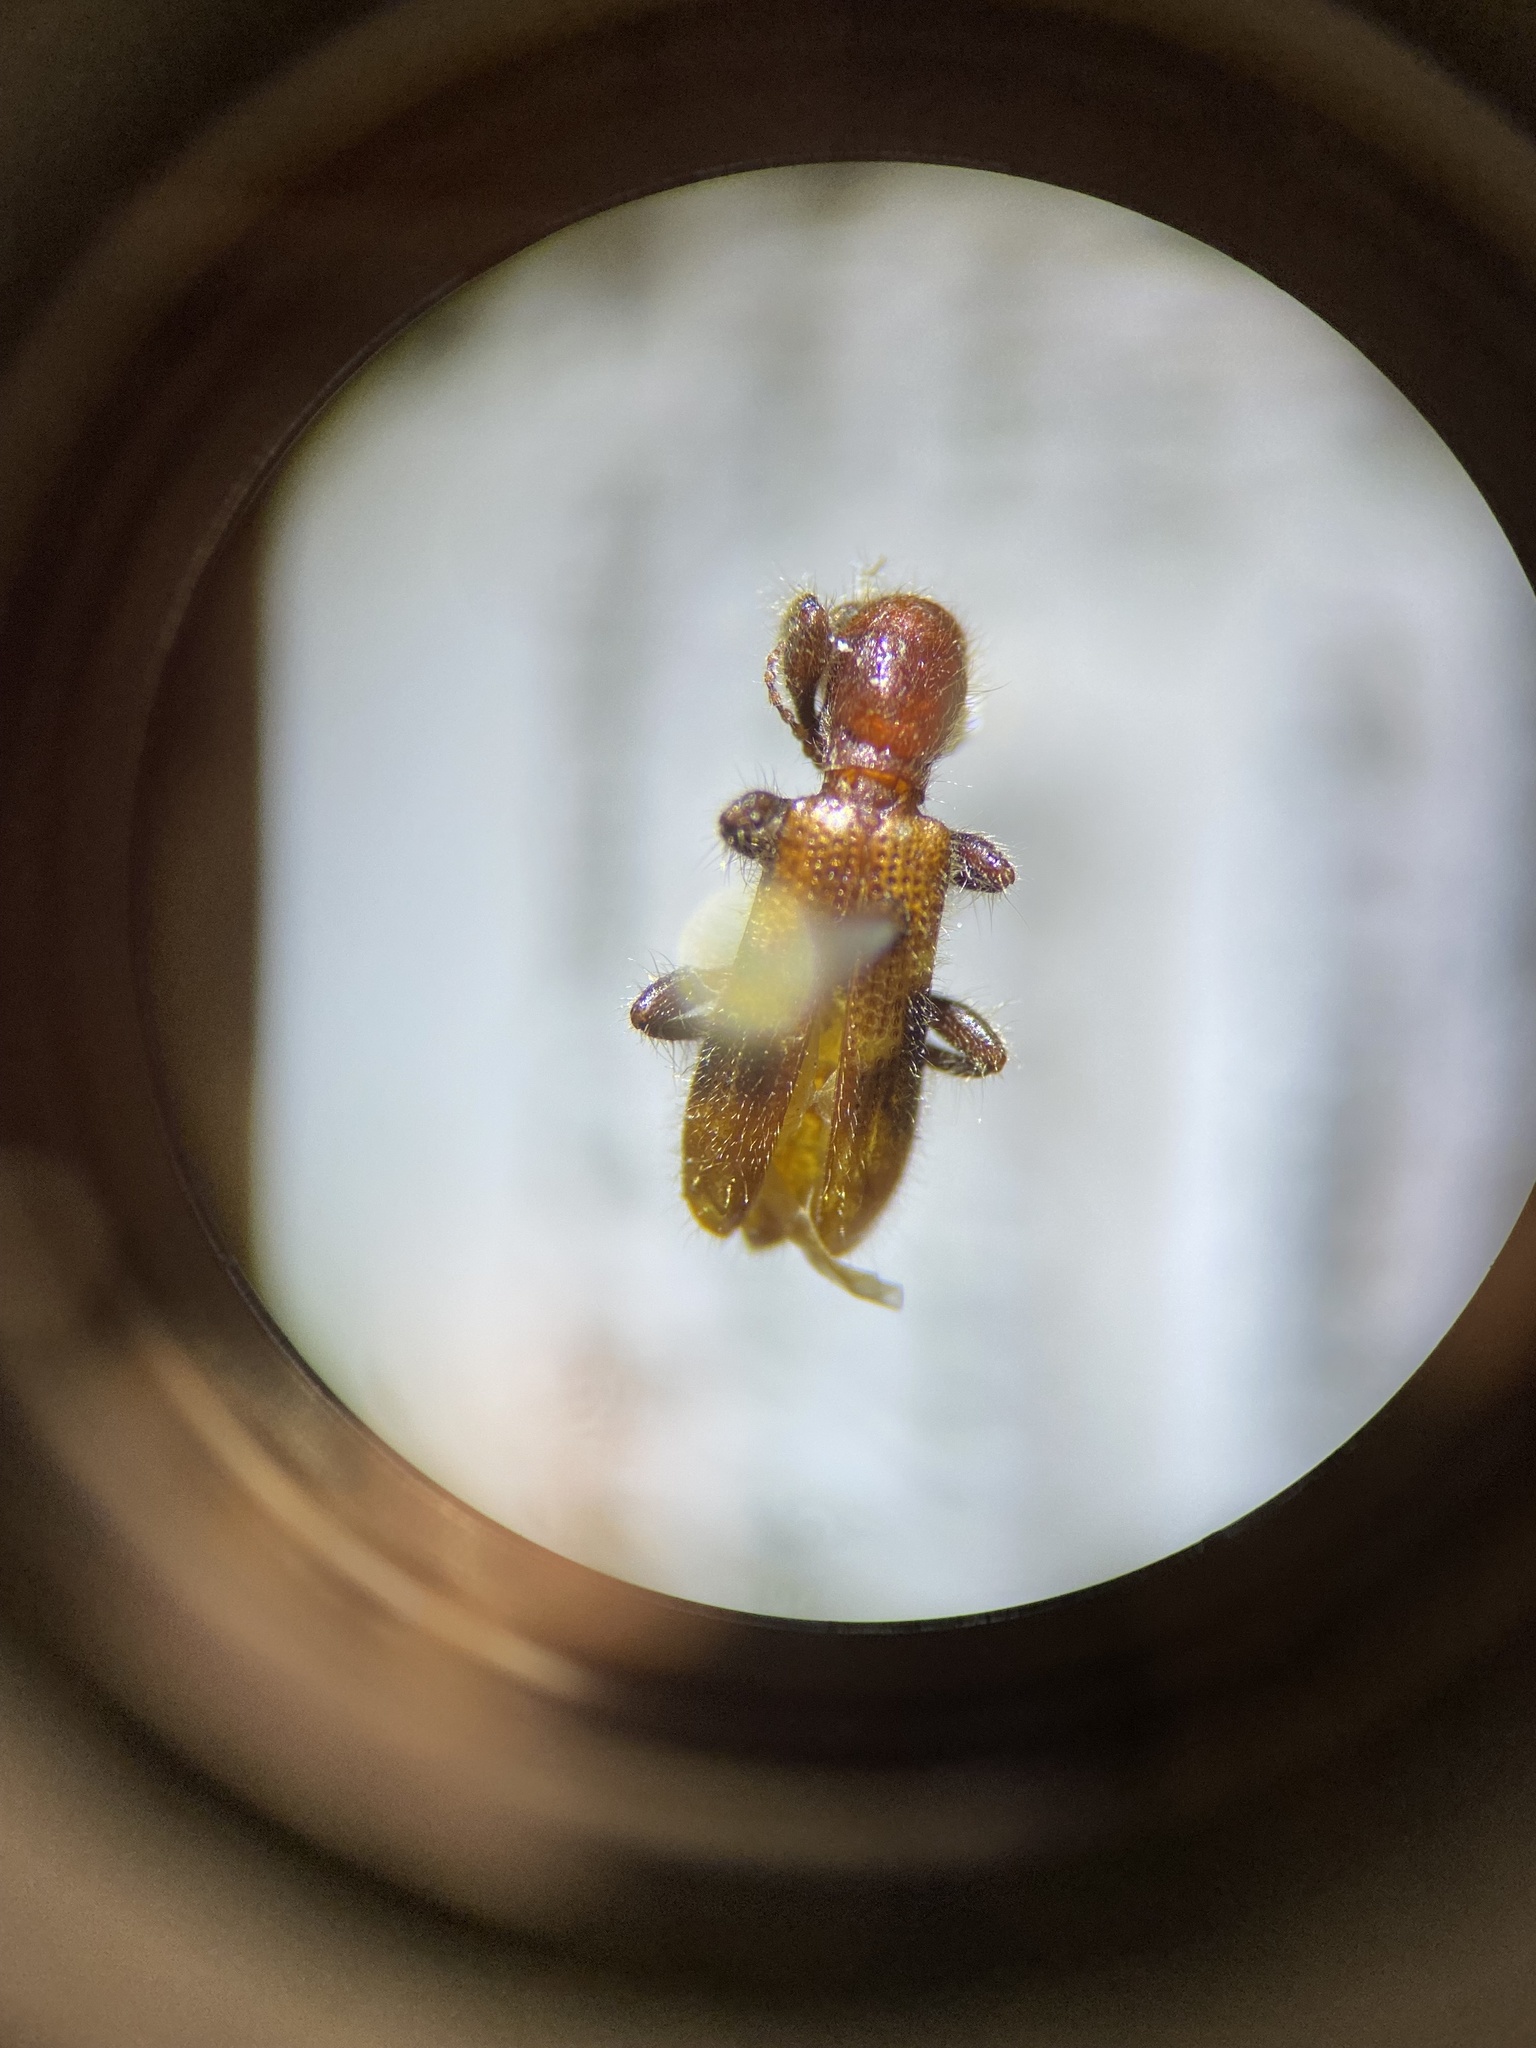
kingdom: Animalia
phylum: Arthropoda
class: Insecta
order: Coleoptera
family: Cleridae
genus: Priocera
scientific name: Priocera castanea
